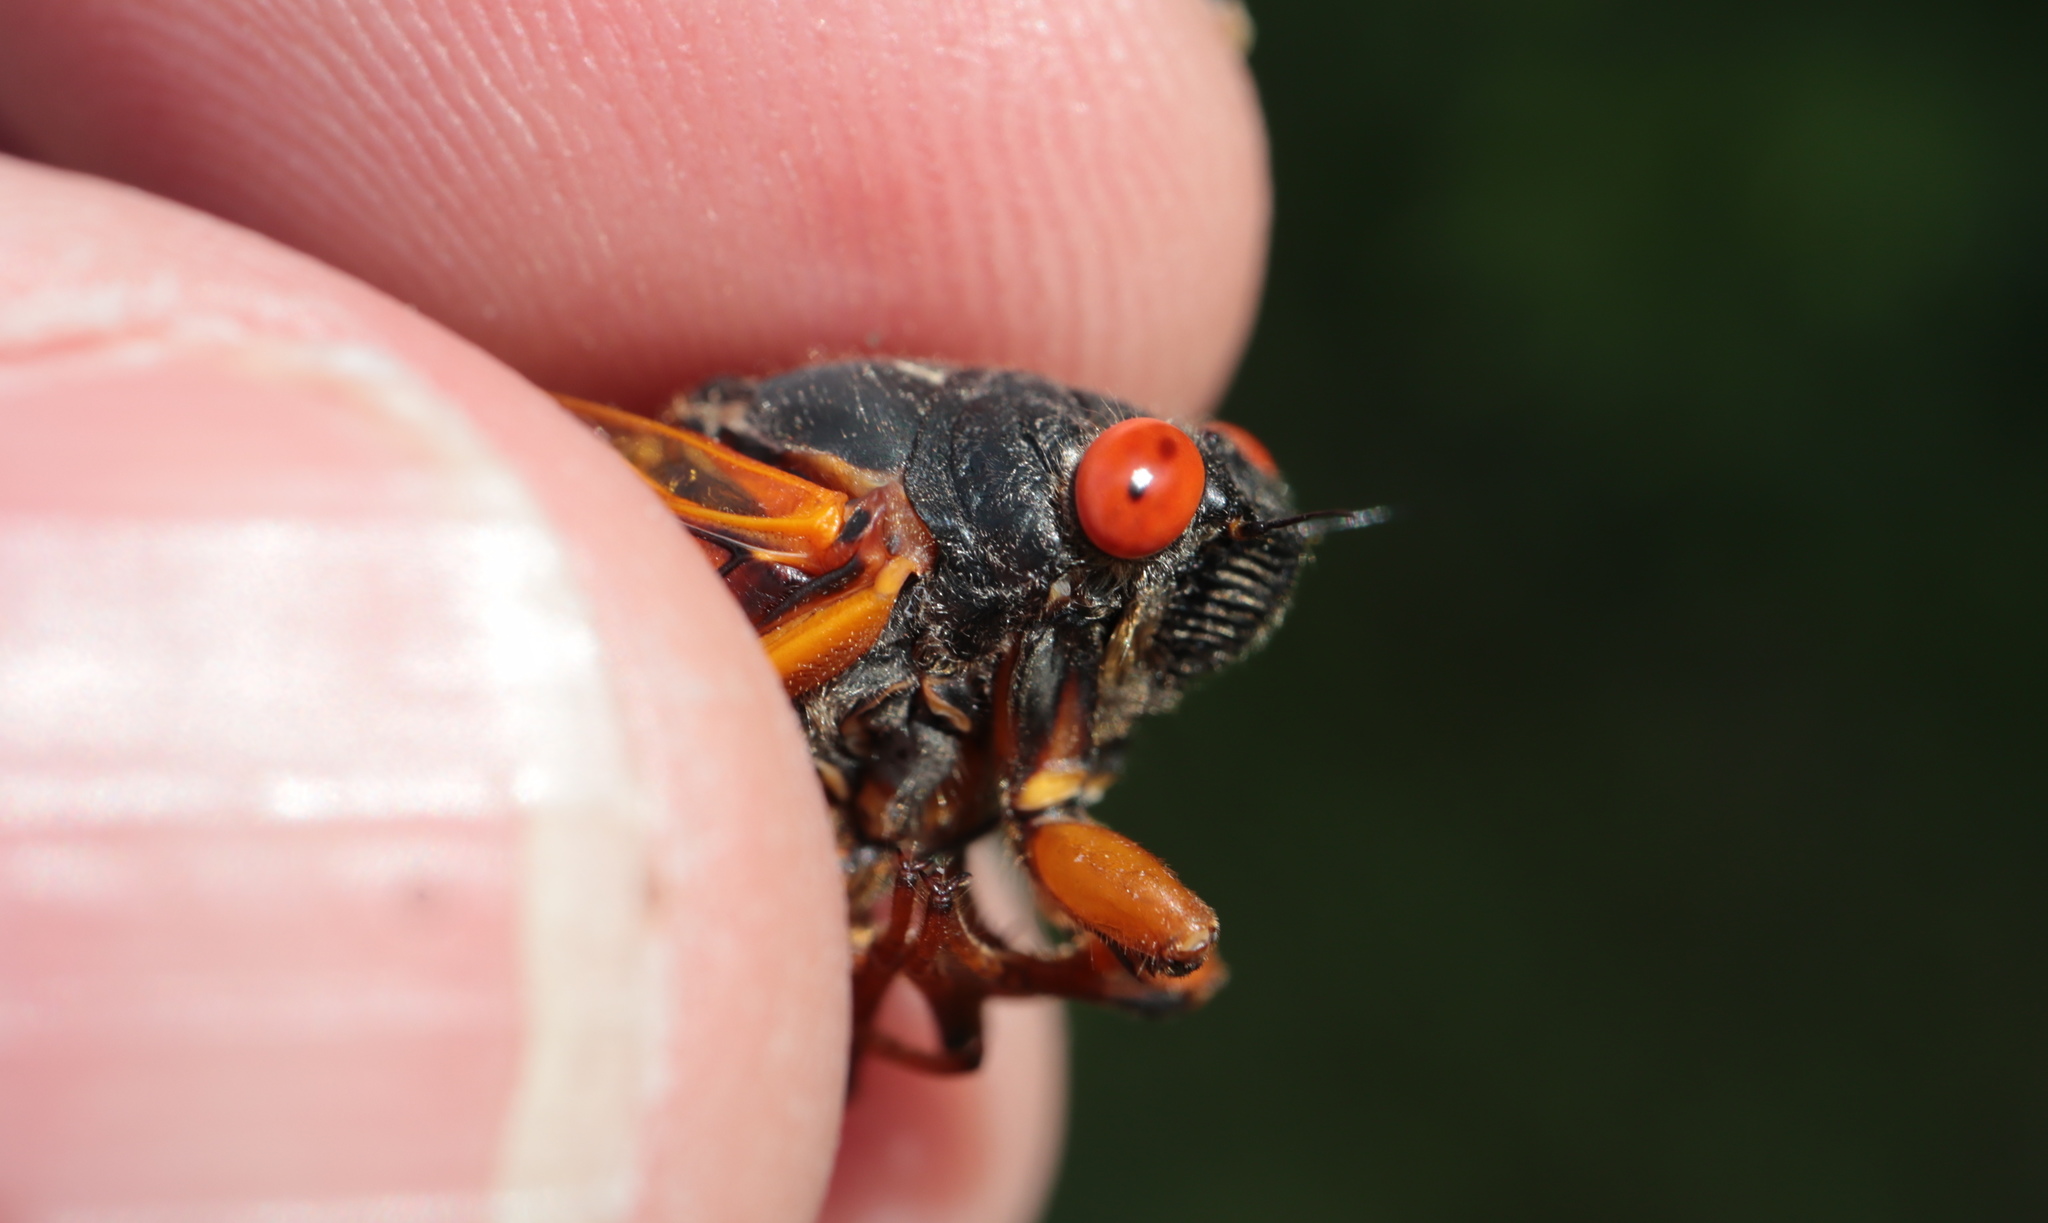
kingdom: Animalia
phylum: Arthropoda
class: Insecta
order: Hemiptera
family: Cicadidae
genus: Magicicada
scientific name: Magicicada septendecula
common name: Decula periodical cicada
